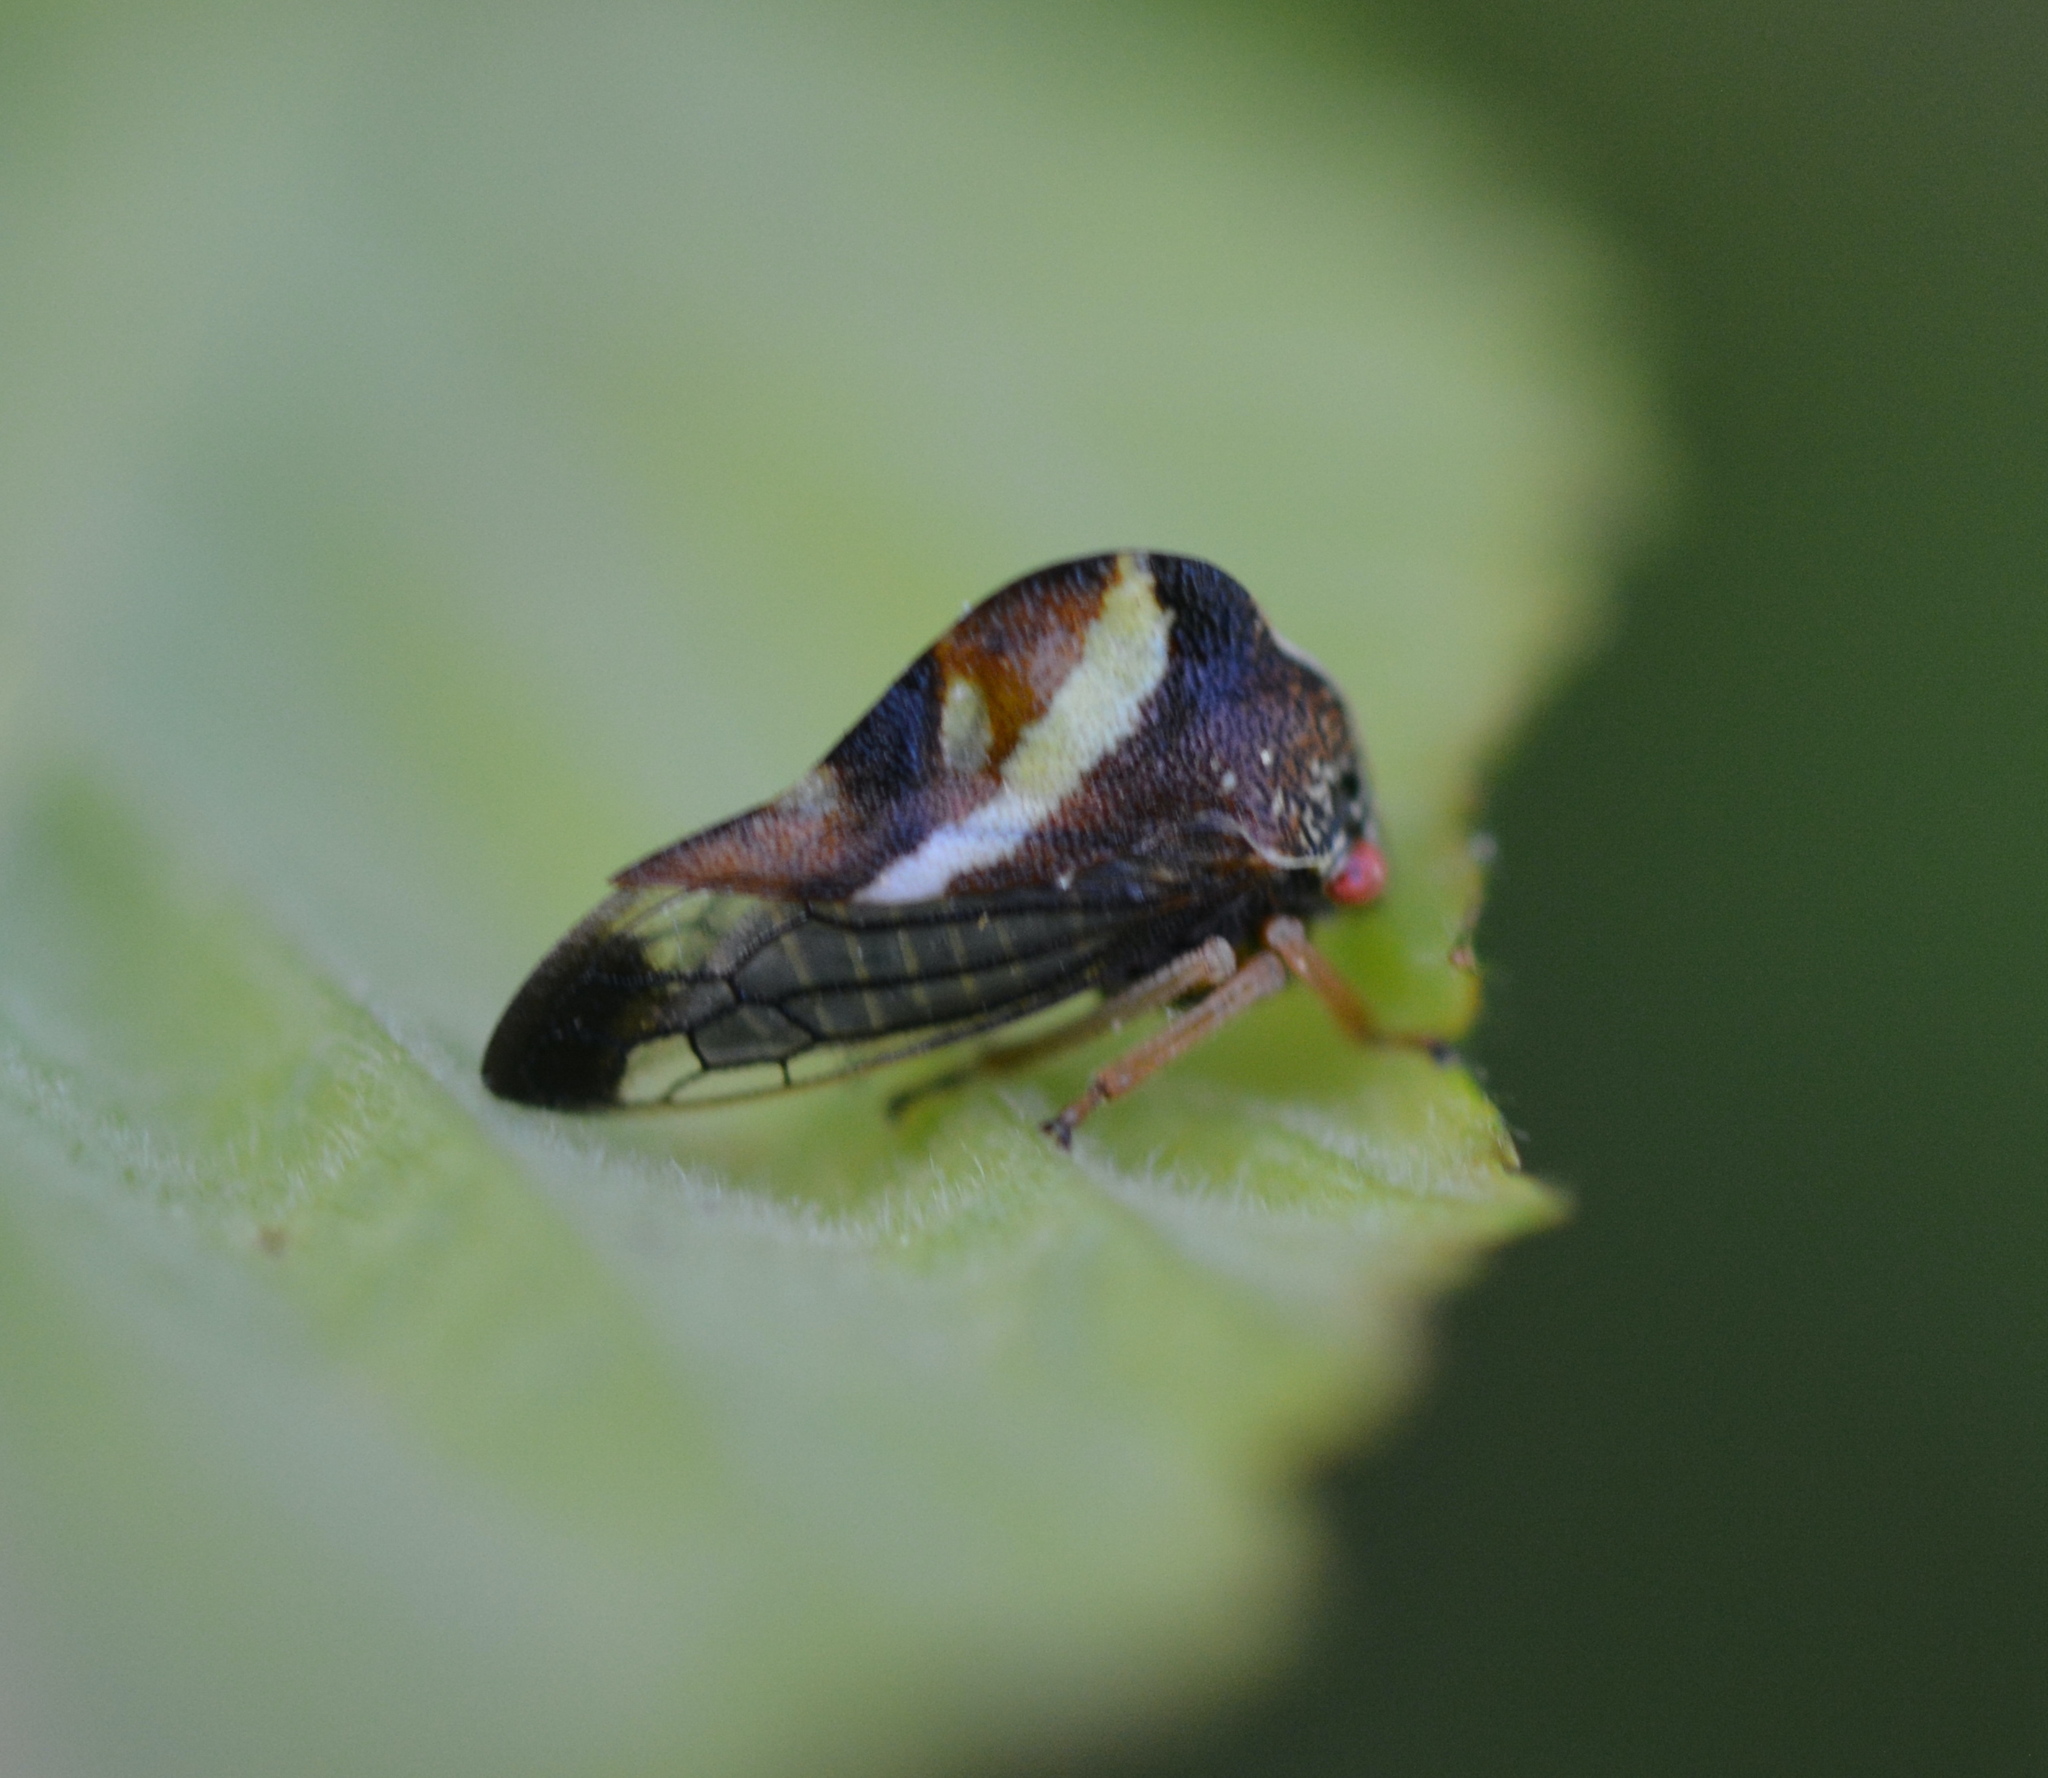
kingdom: Animalia
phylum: Arthropoda
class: Insecta
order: Hemiptera
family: Membracidae
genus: Smilia
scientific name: Smilia camelus
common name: Camel treehopper
